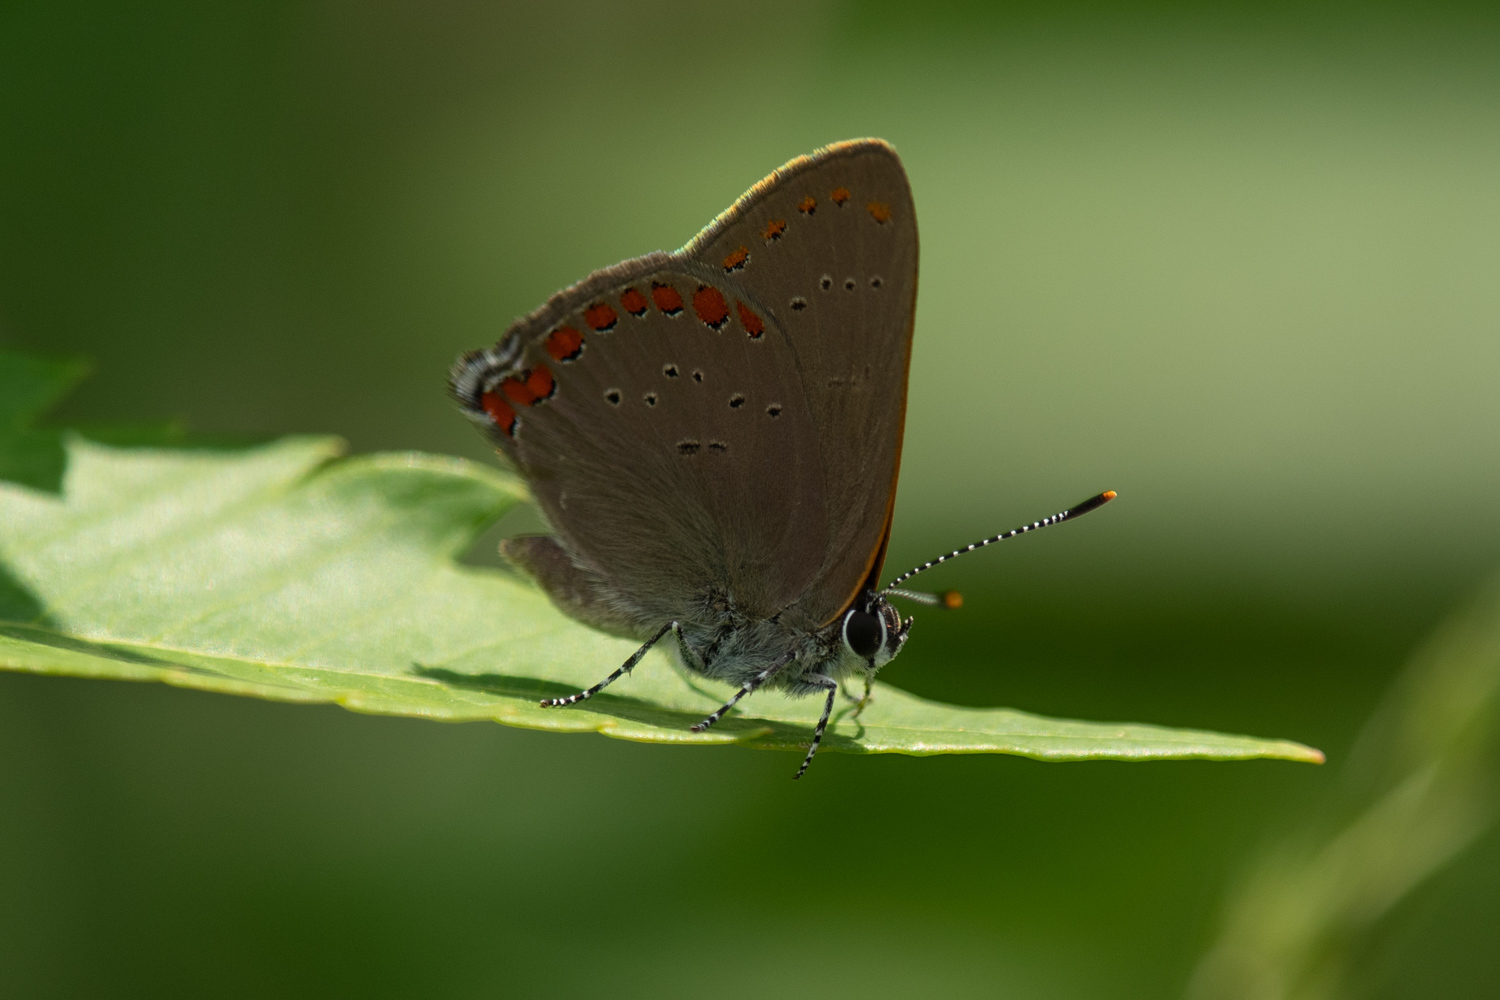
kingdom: Animalia
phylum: Arthropoda
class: Insecta
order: Lepidoptera
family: Lycaenidae
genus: Harkenclenus
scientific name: Harkenclenus titus
